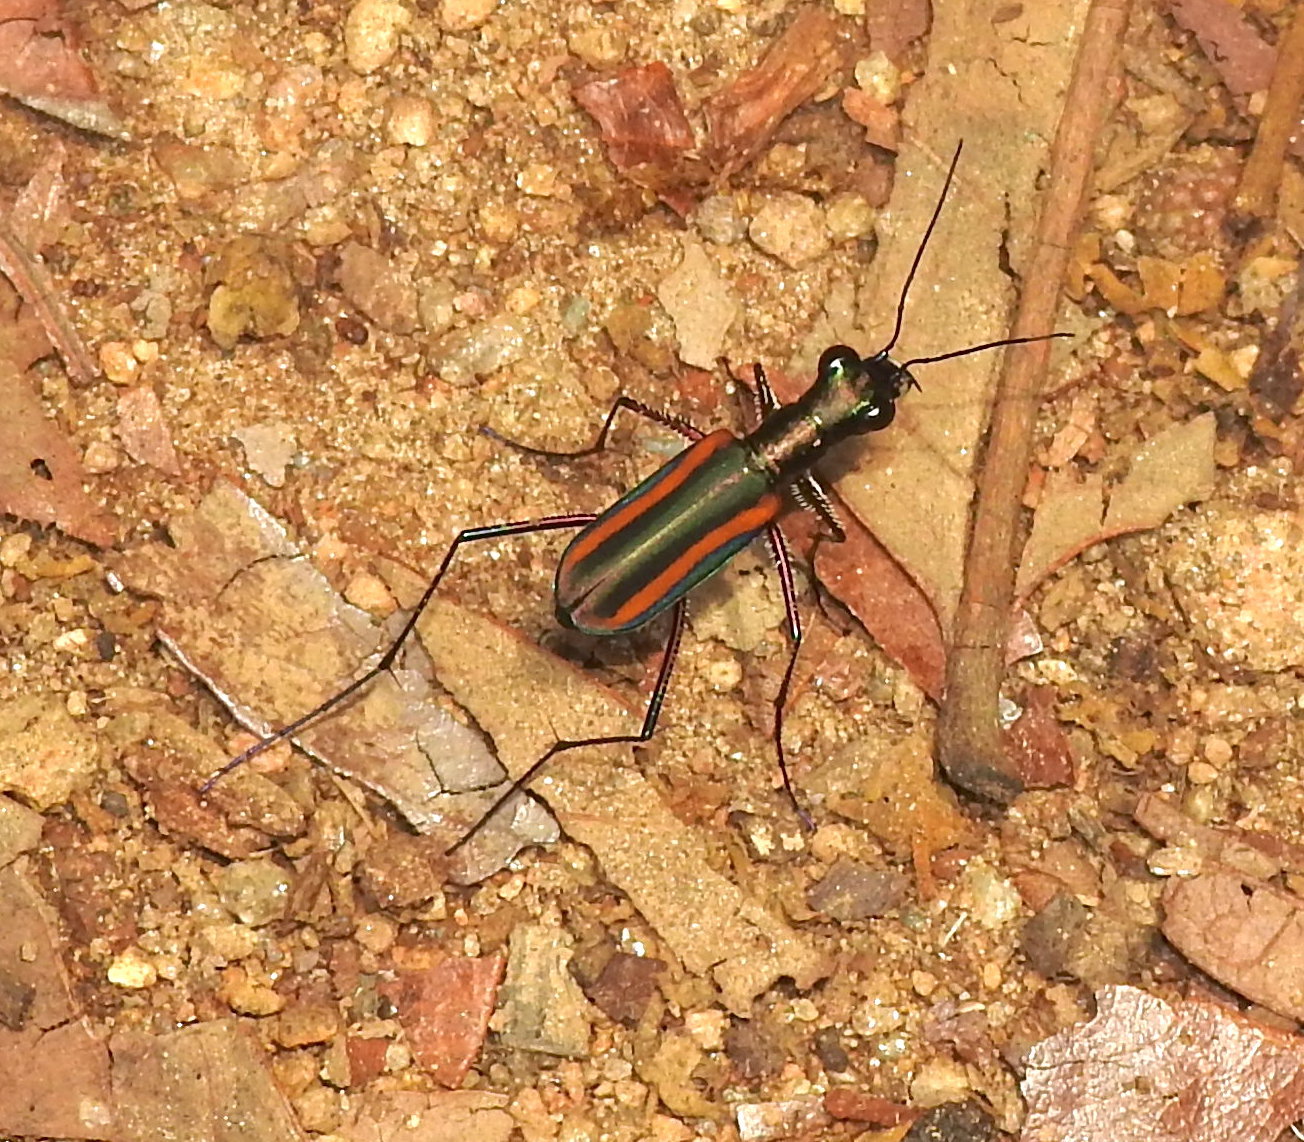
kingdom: Animalia
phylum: Arthropoda
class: Insecta
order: Coleoptera
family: Carabidae
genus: Cicindela
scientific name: Cicindela hamiltoniana
